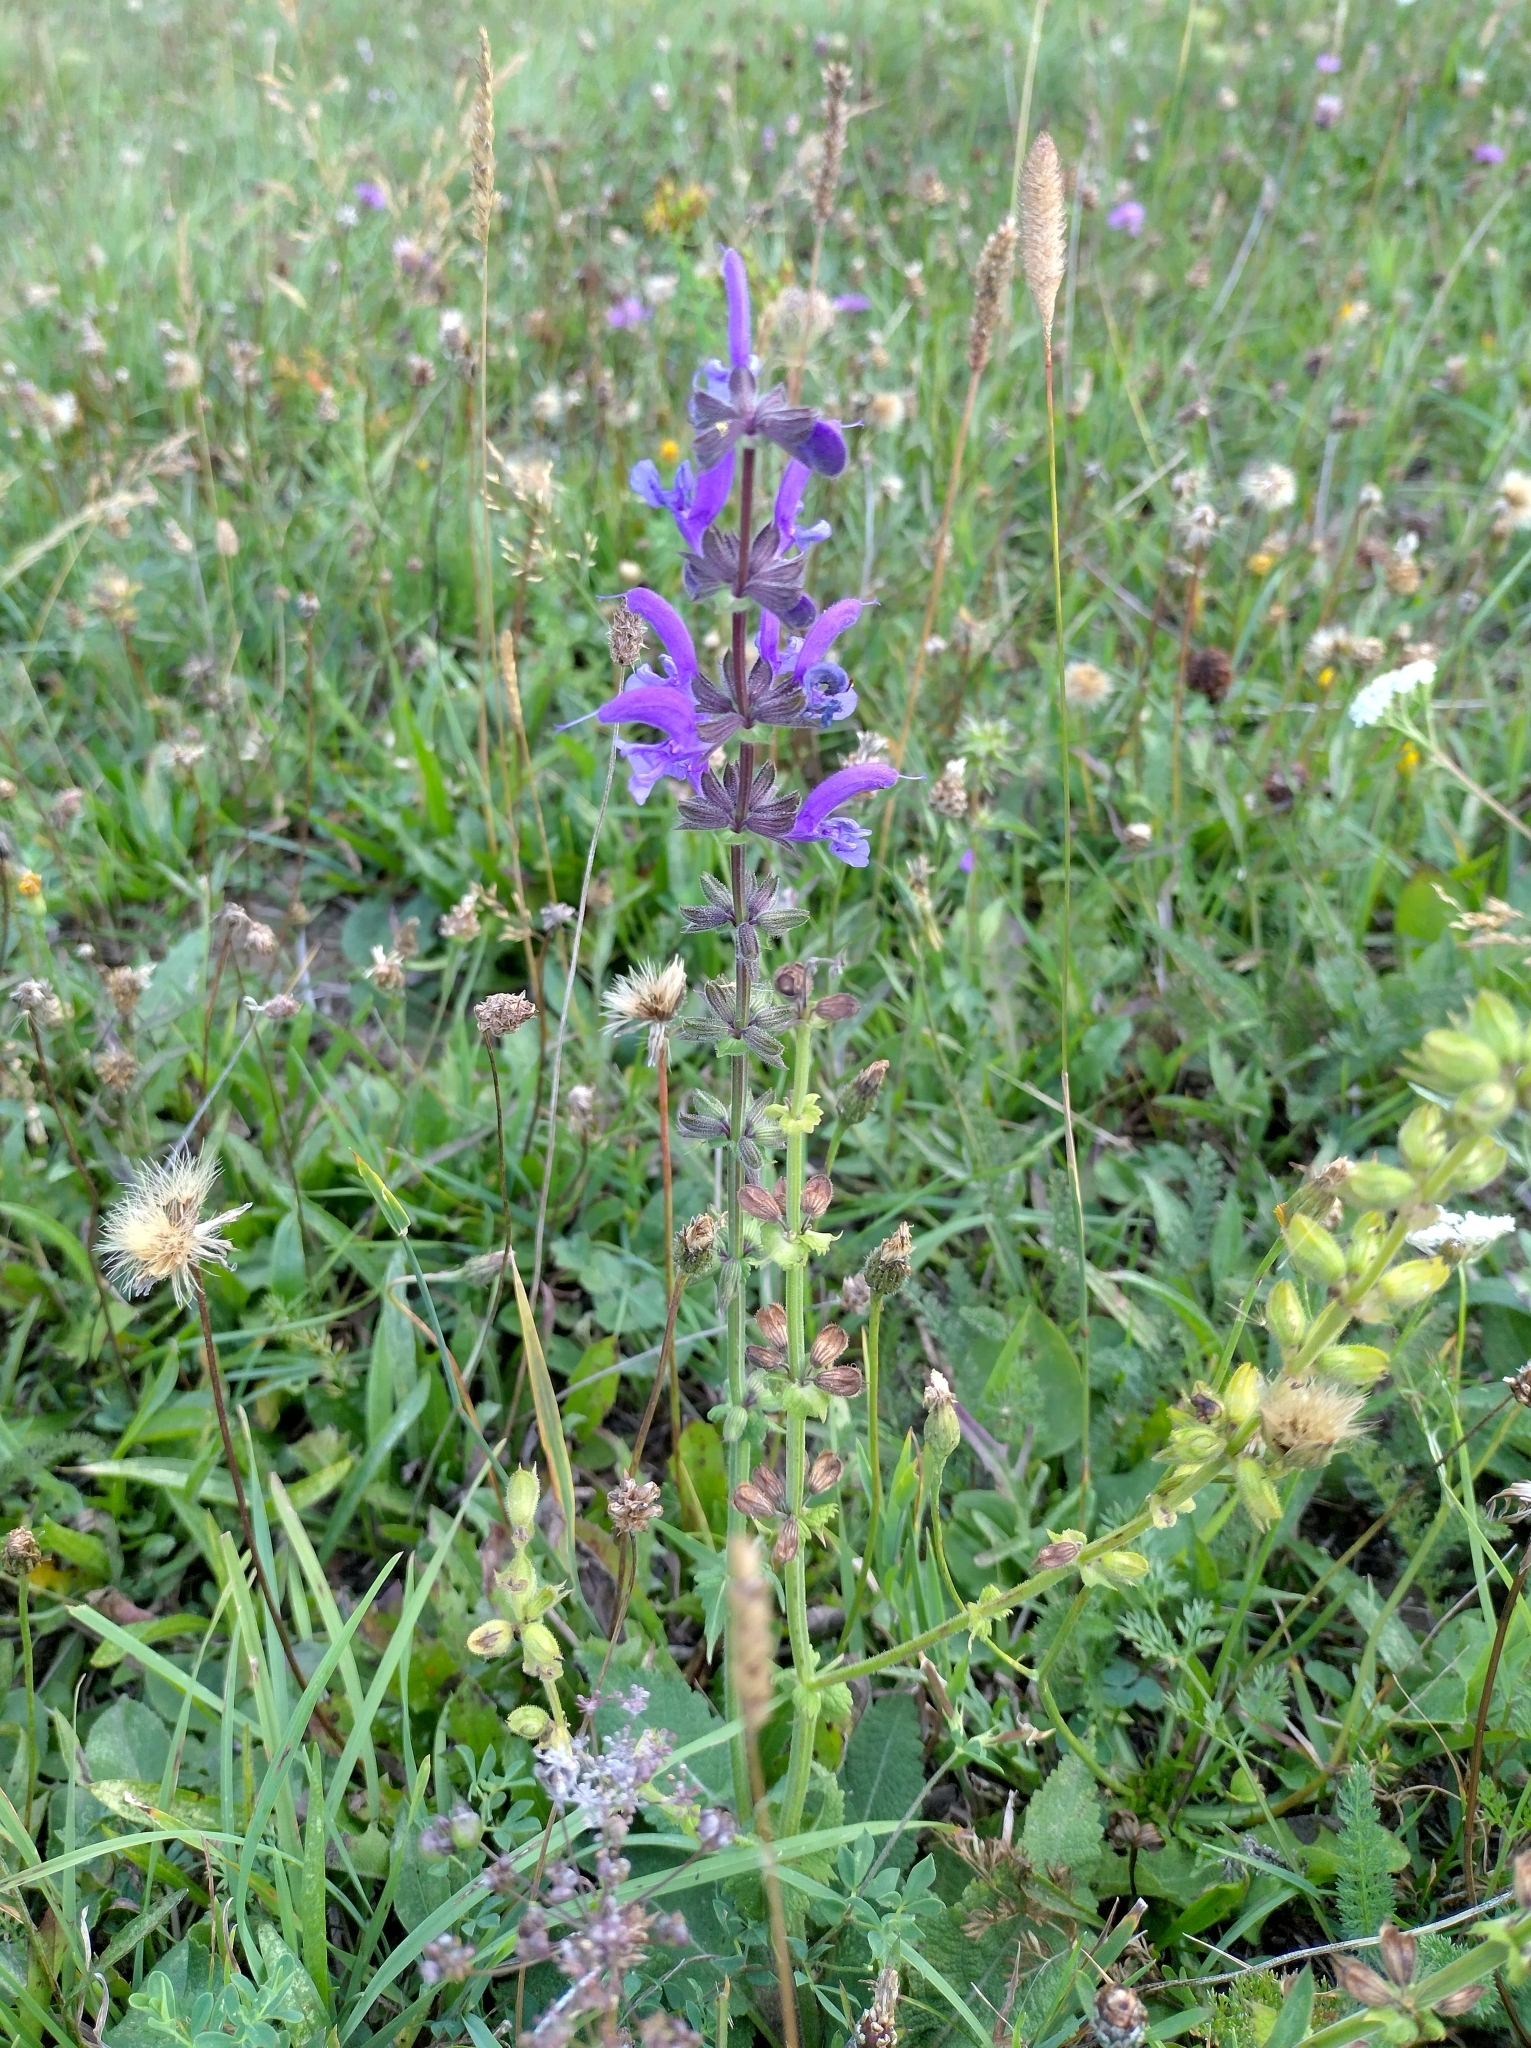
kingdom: Plantae
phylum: Tracheophyta
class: Magnoliopsida
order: Lamiales
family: Lamiaceae
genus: Salvia
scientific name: Salvia pratensis
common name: Meadow sage
